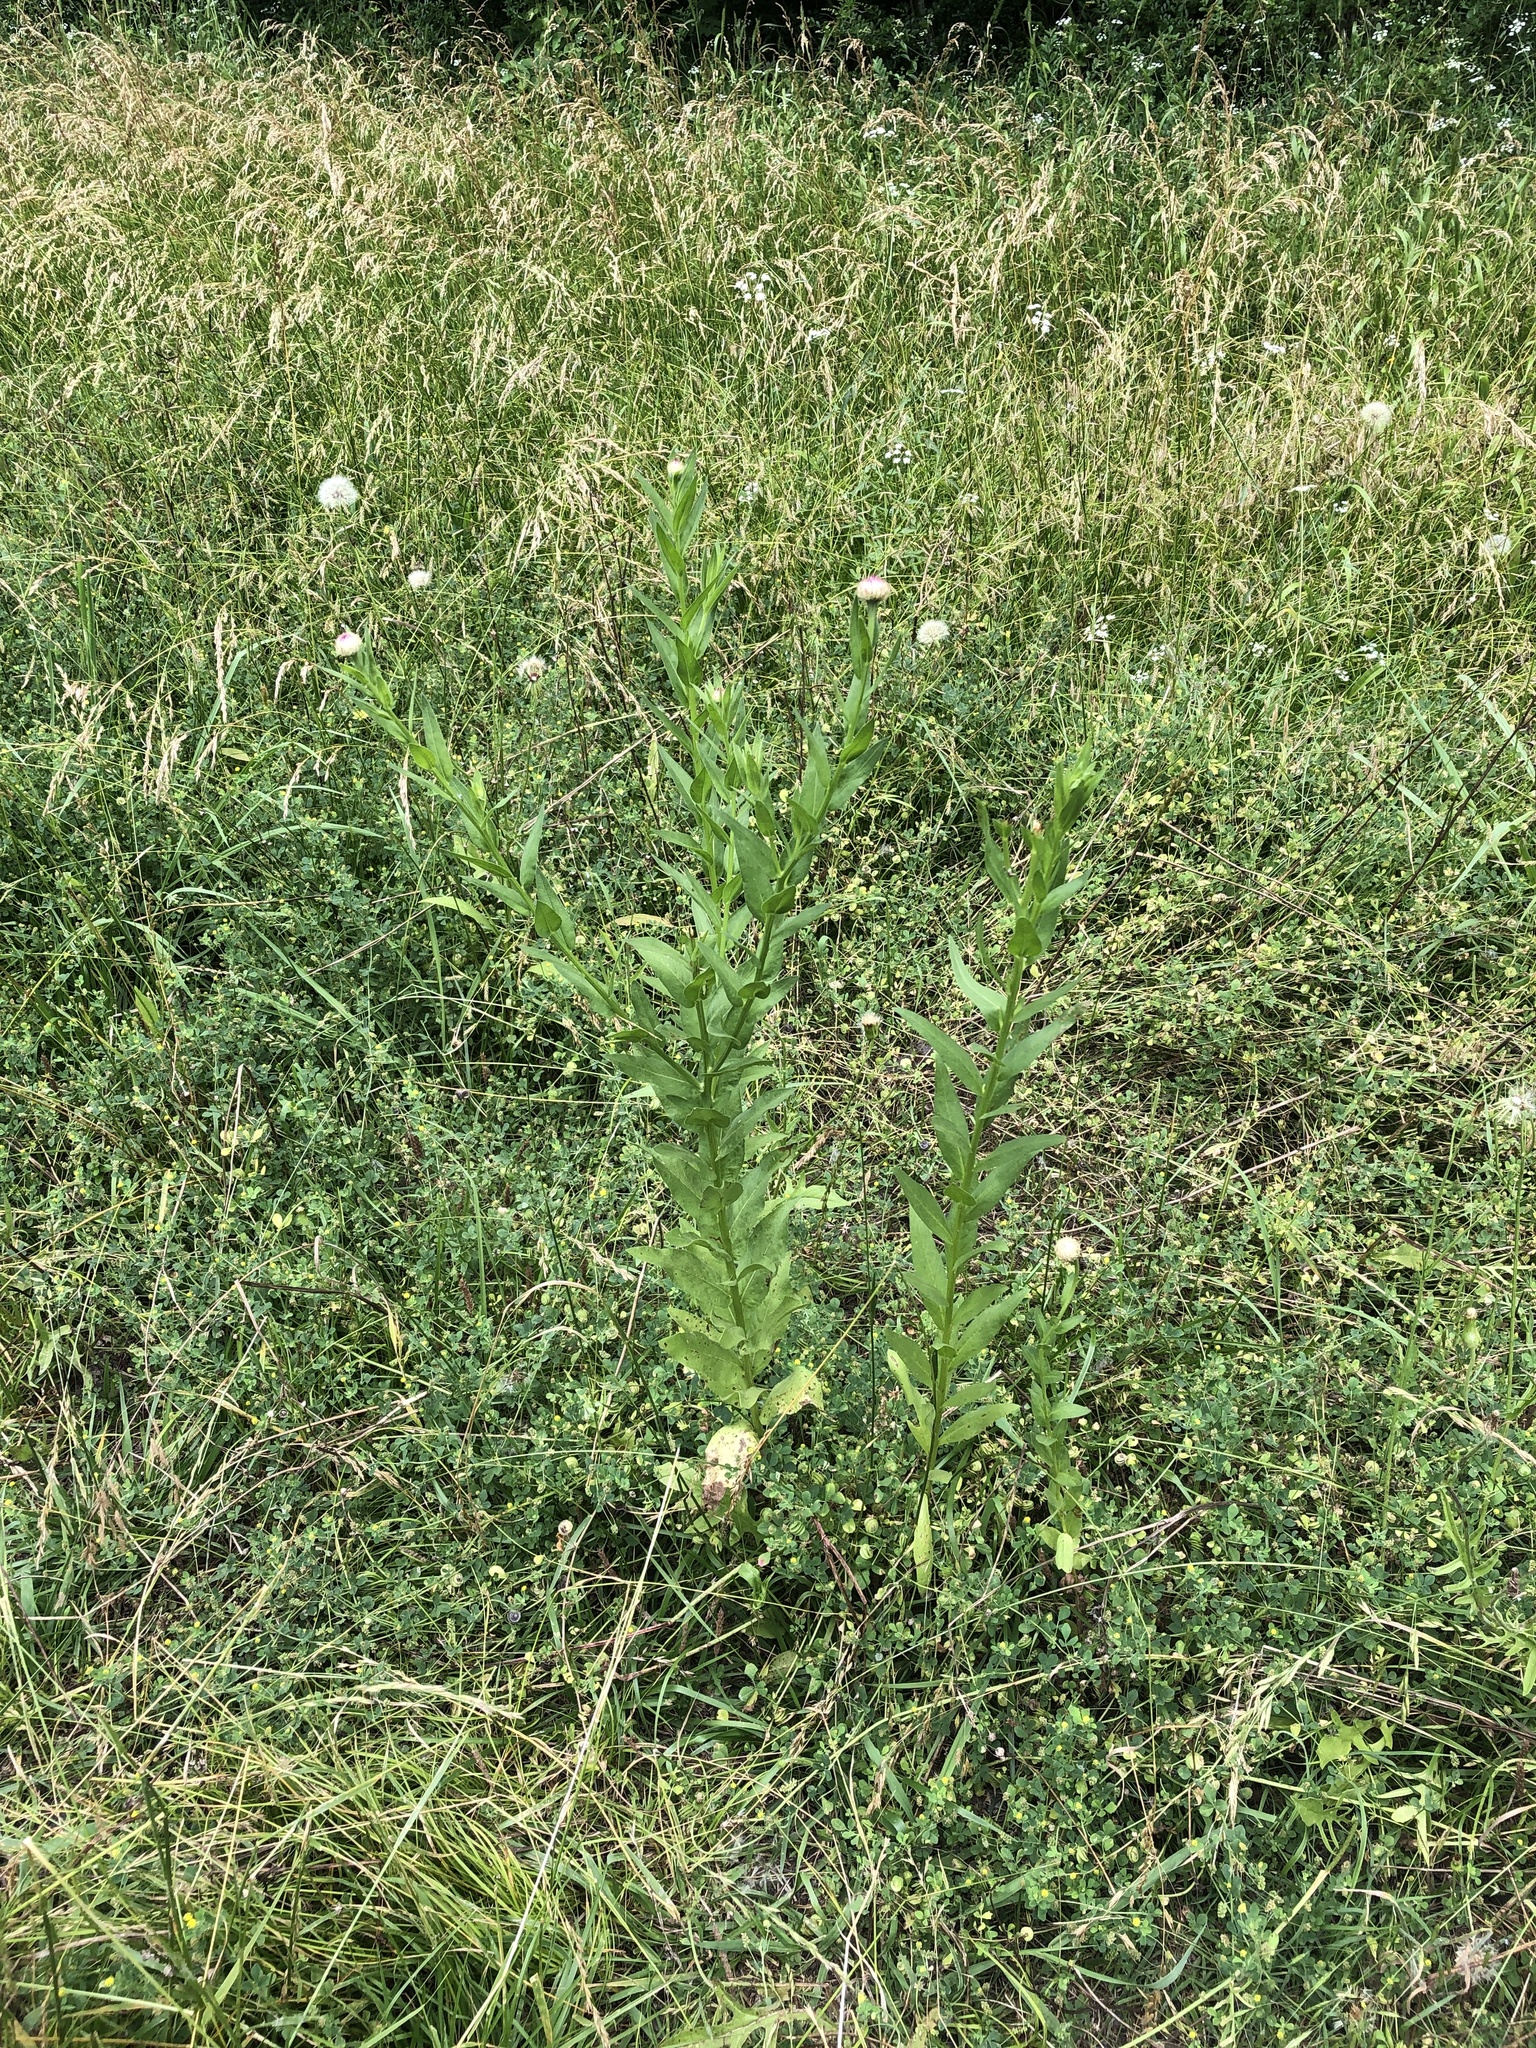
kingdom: Plantae
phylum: Tracheophyta
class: Magnoliopsida
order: Asterales
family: Asteraceae
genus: Plectocephalus
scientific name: Plectocephalus americanus
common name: American basket-flower
